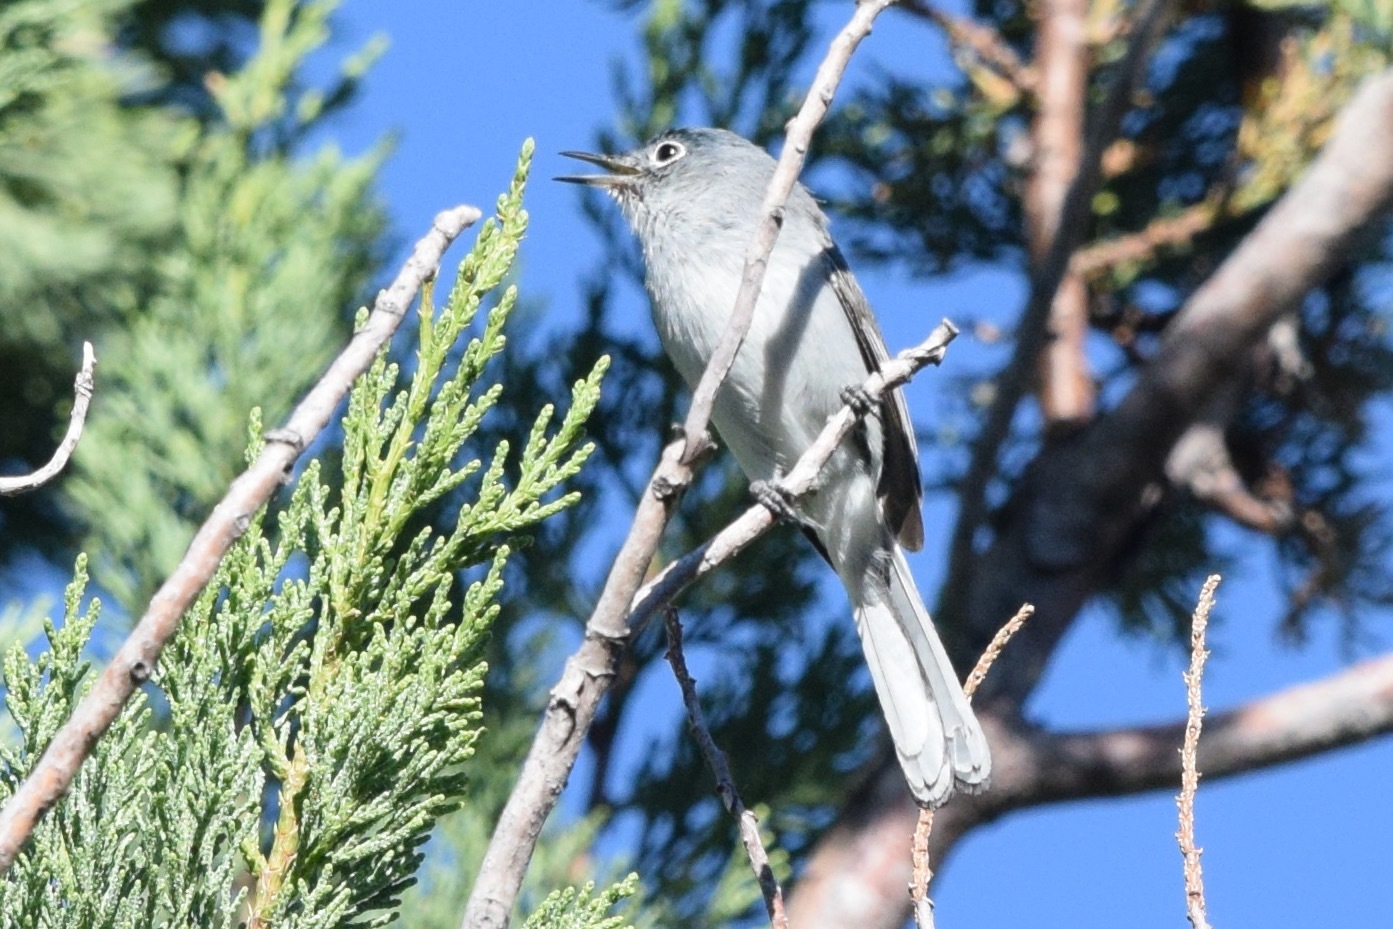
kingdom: Animalia
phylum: Chordata
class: Aves
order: Passeriformes
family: Polioptilidae
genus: Polioptila
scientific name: Polioptila nigriceps
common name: Black-capped gnatcatcher
